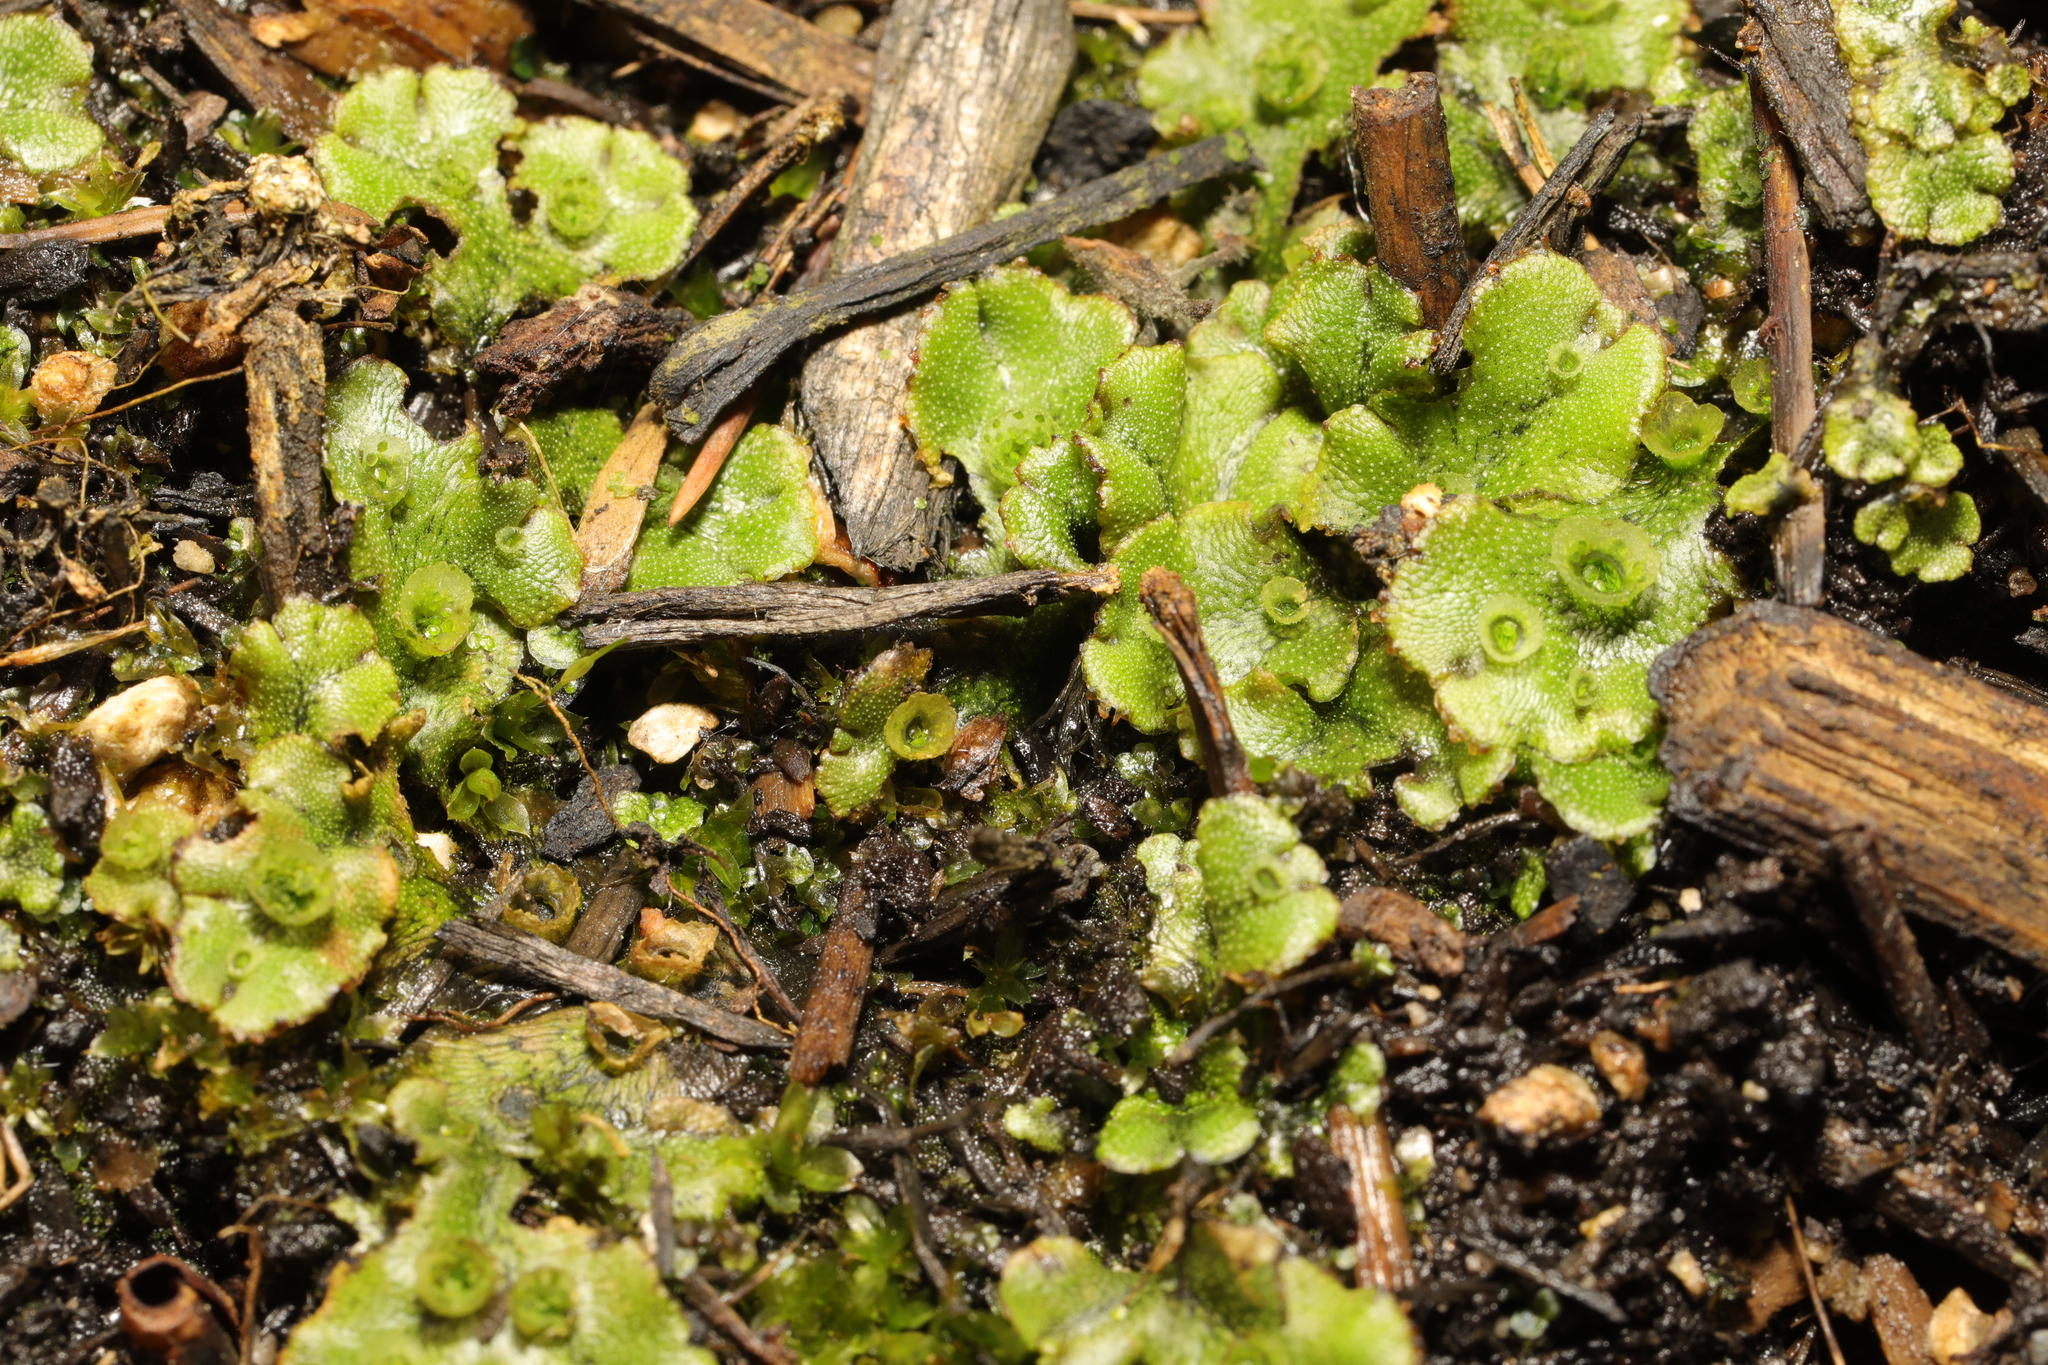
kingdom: Plantae
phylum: Marchantiophyta
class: Marchantiopsida
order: Marchantiales
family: Marchantiaceae
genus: Marchantia
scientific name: Marchantia polymorpha
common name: Common liverwort
